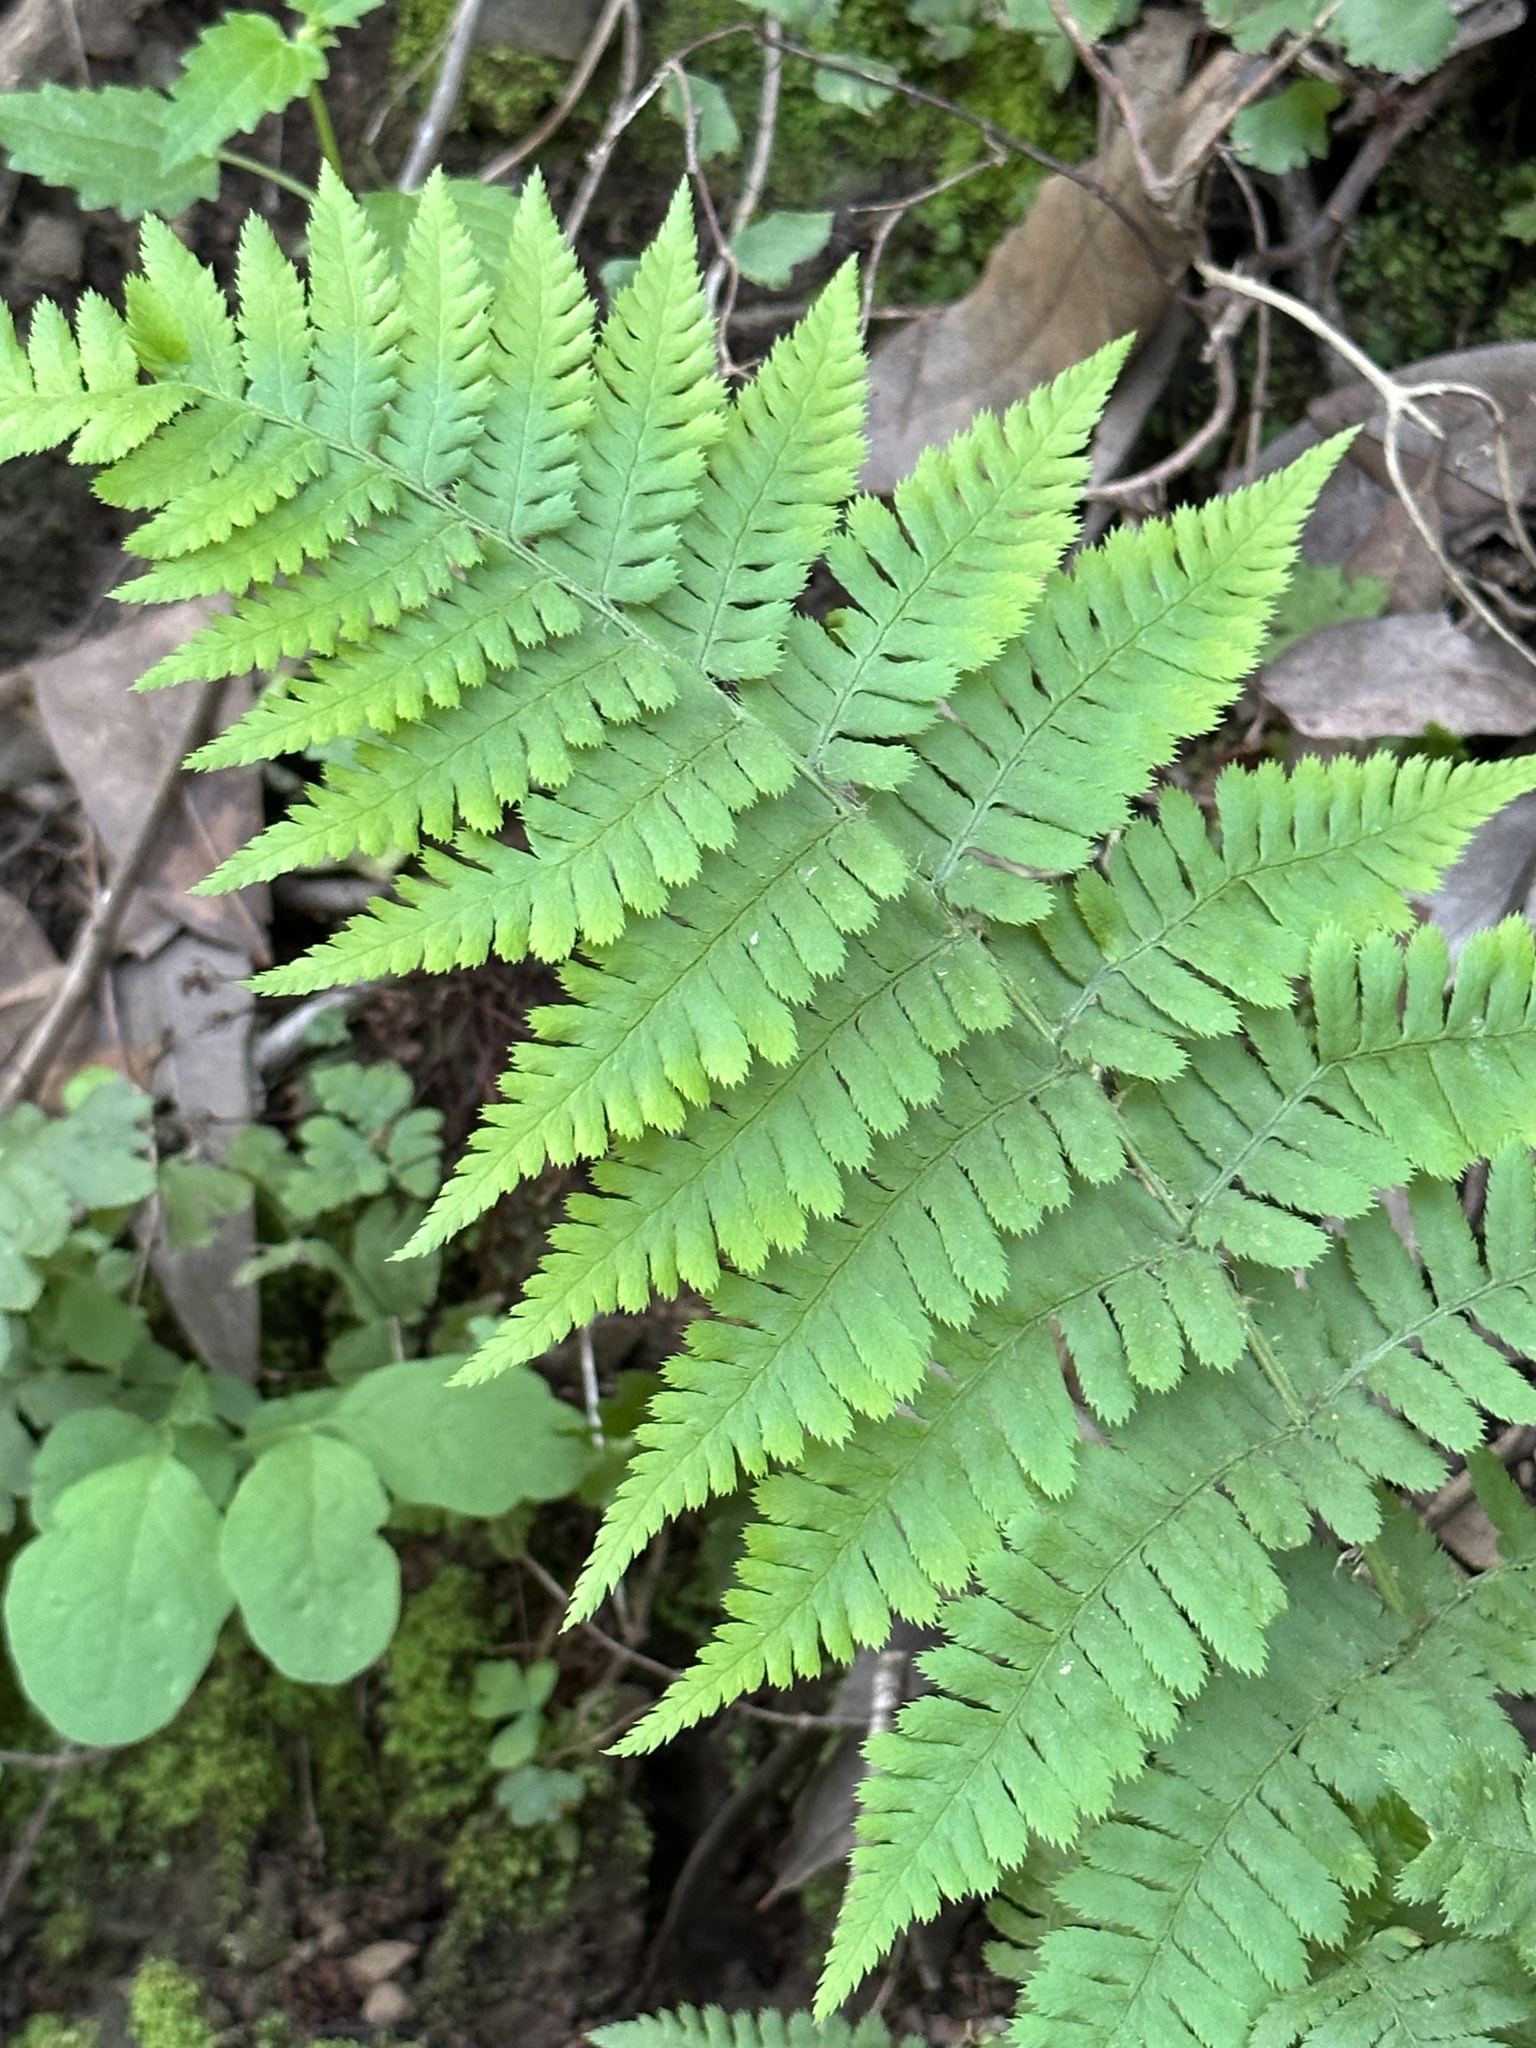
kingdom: Plantae
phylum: Tracheophyta
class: Polypodiopsida
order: Polypodiales
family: Dryopteridaceae
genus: Dryopteris
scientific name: Dryopteris arguta
